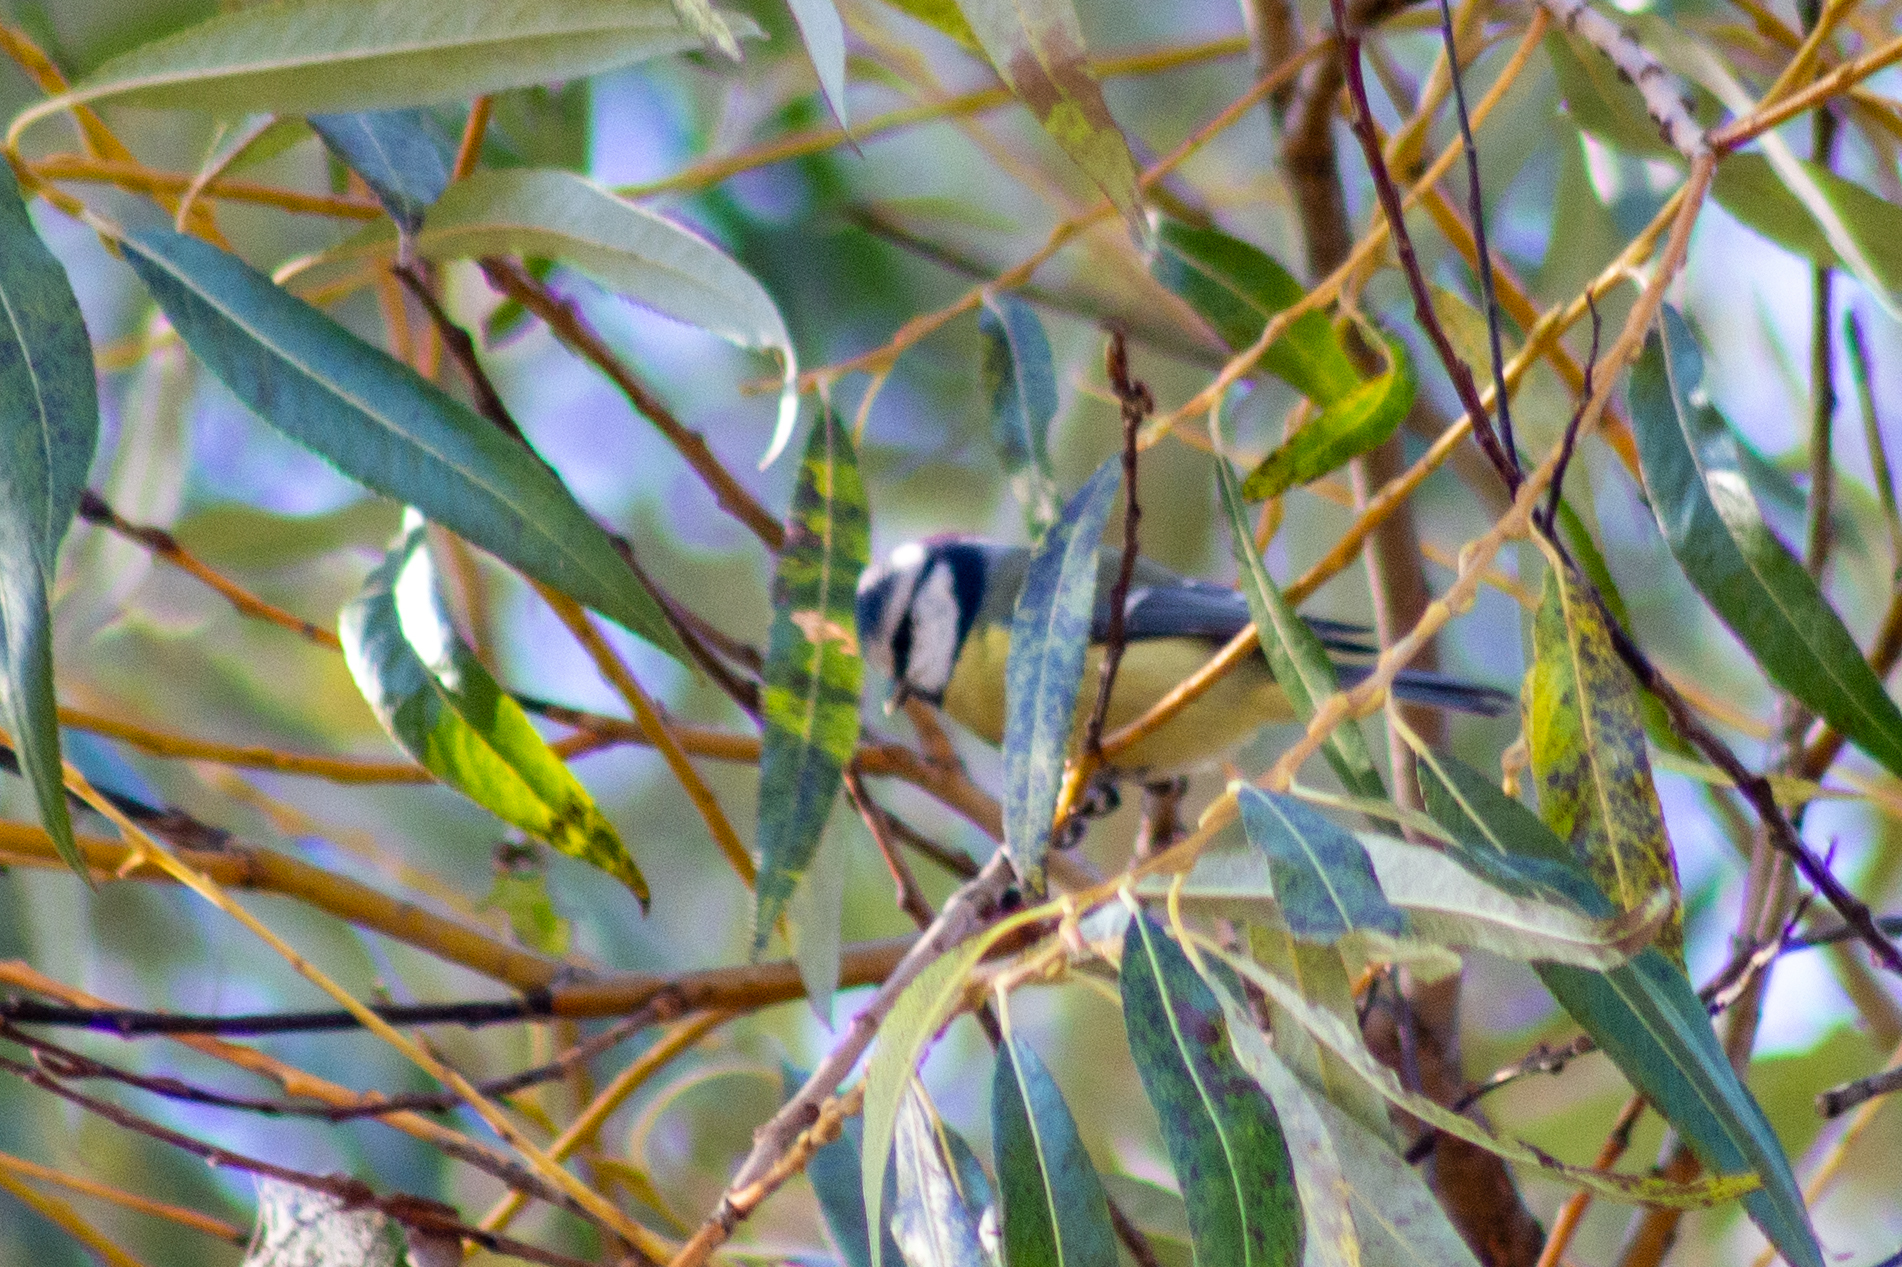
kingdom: Animalia
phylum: Chordata
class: Aves
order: Passeriformes
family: Paridae
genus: Cyanistes
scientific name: Cyanistes caeruleus
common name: Eurasian blue tit
